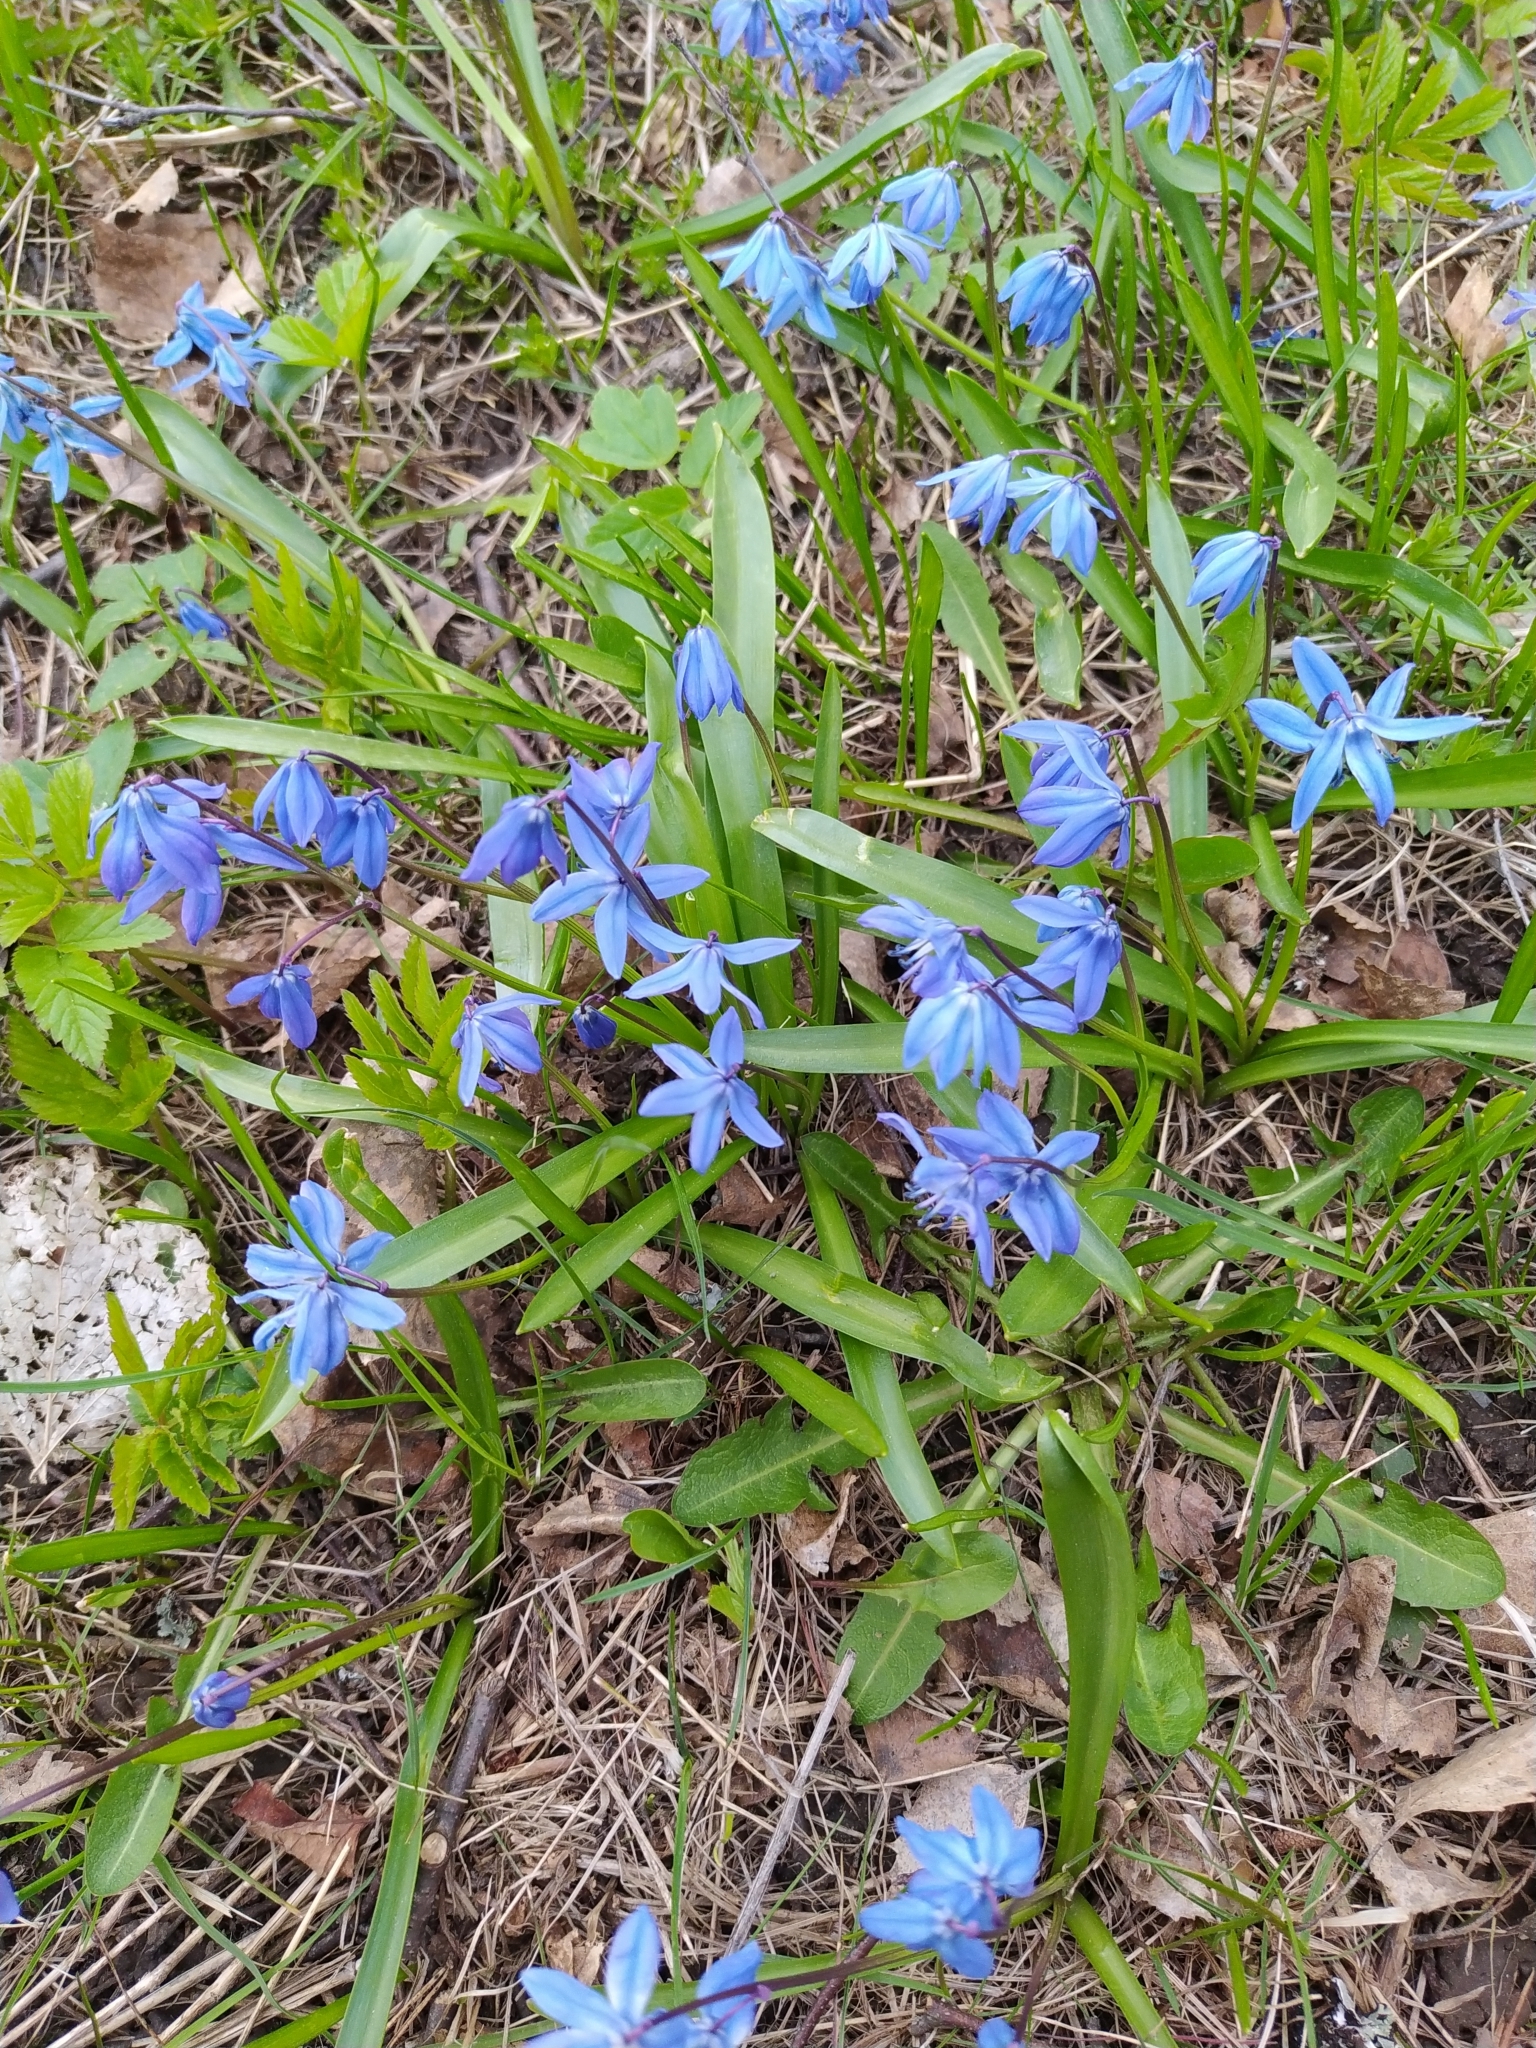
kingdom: Plantae
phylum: Tracheophyta
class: Liliopsida
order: Asparagales
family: Asparagaceae
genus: Scilla
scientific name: Scilla siberica
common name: Siberian squill
